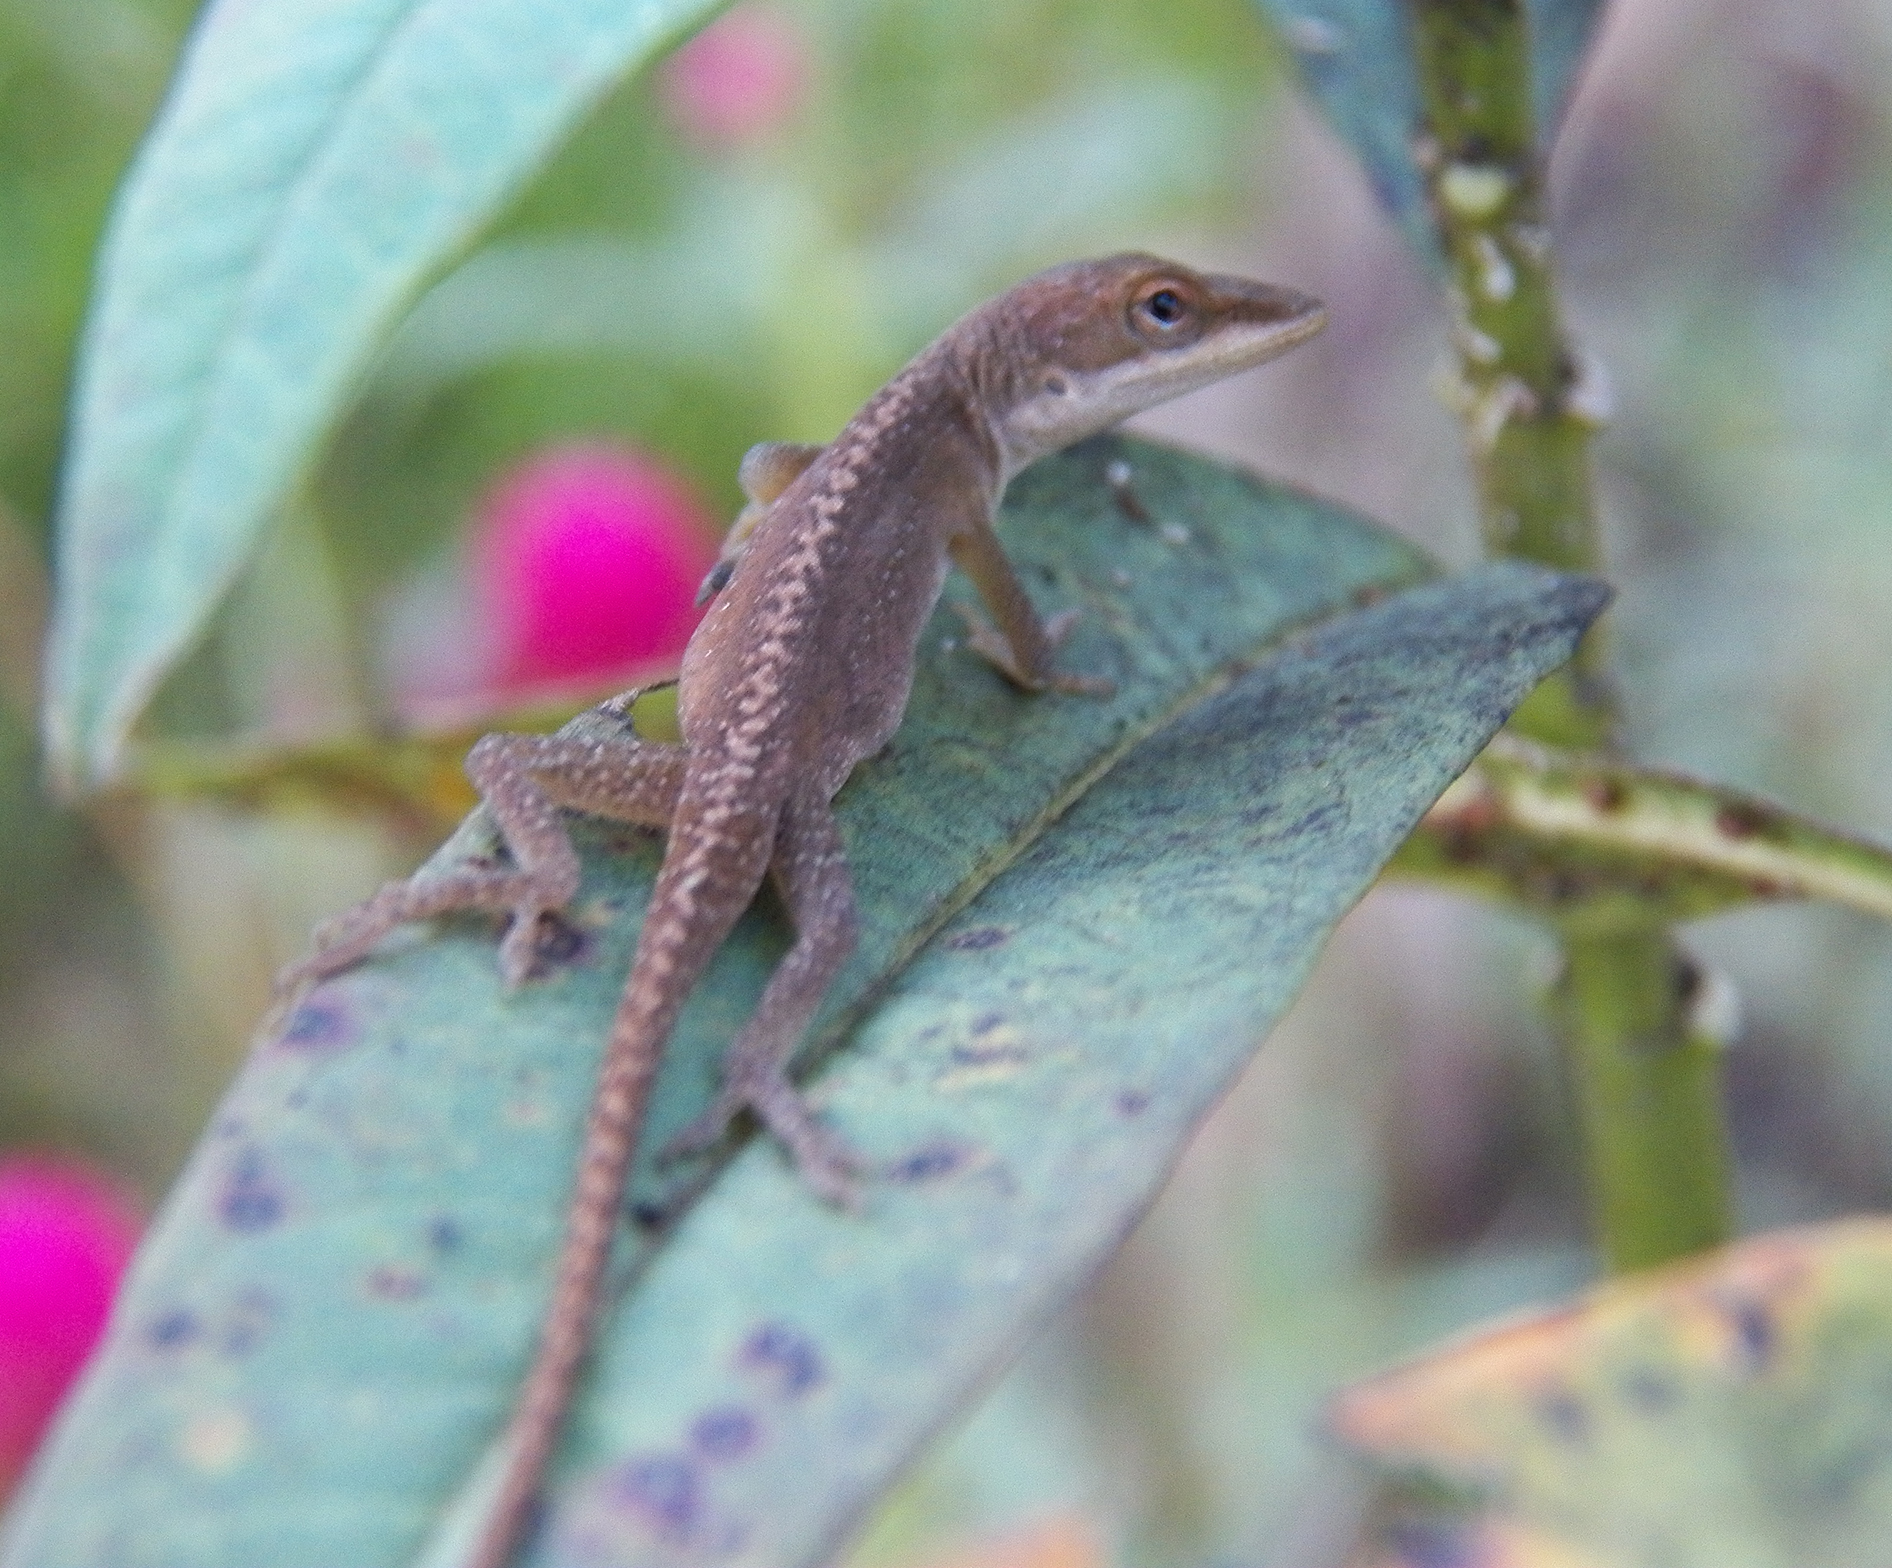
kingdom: Animalia
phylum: Chordata
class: Squamata
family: Dactyloidae
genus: Anolis
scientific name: Anolis carolinensis
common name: Green anole
